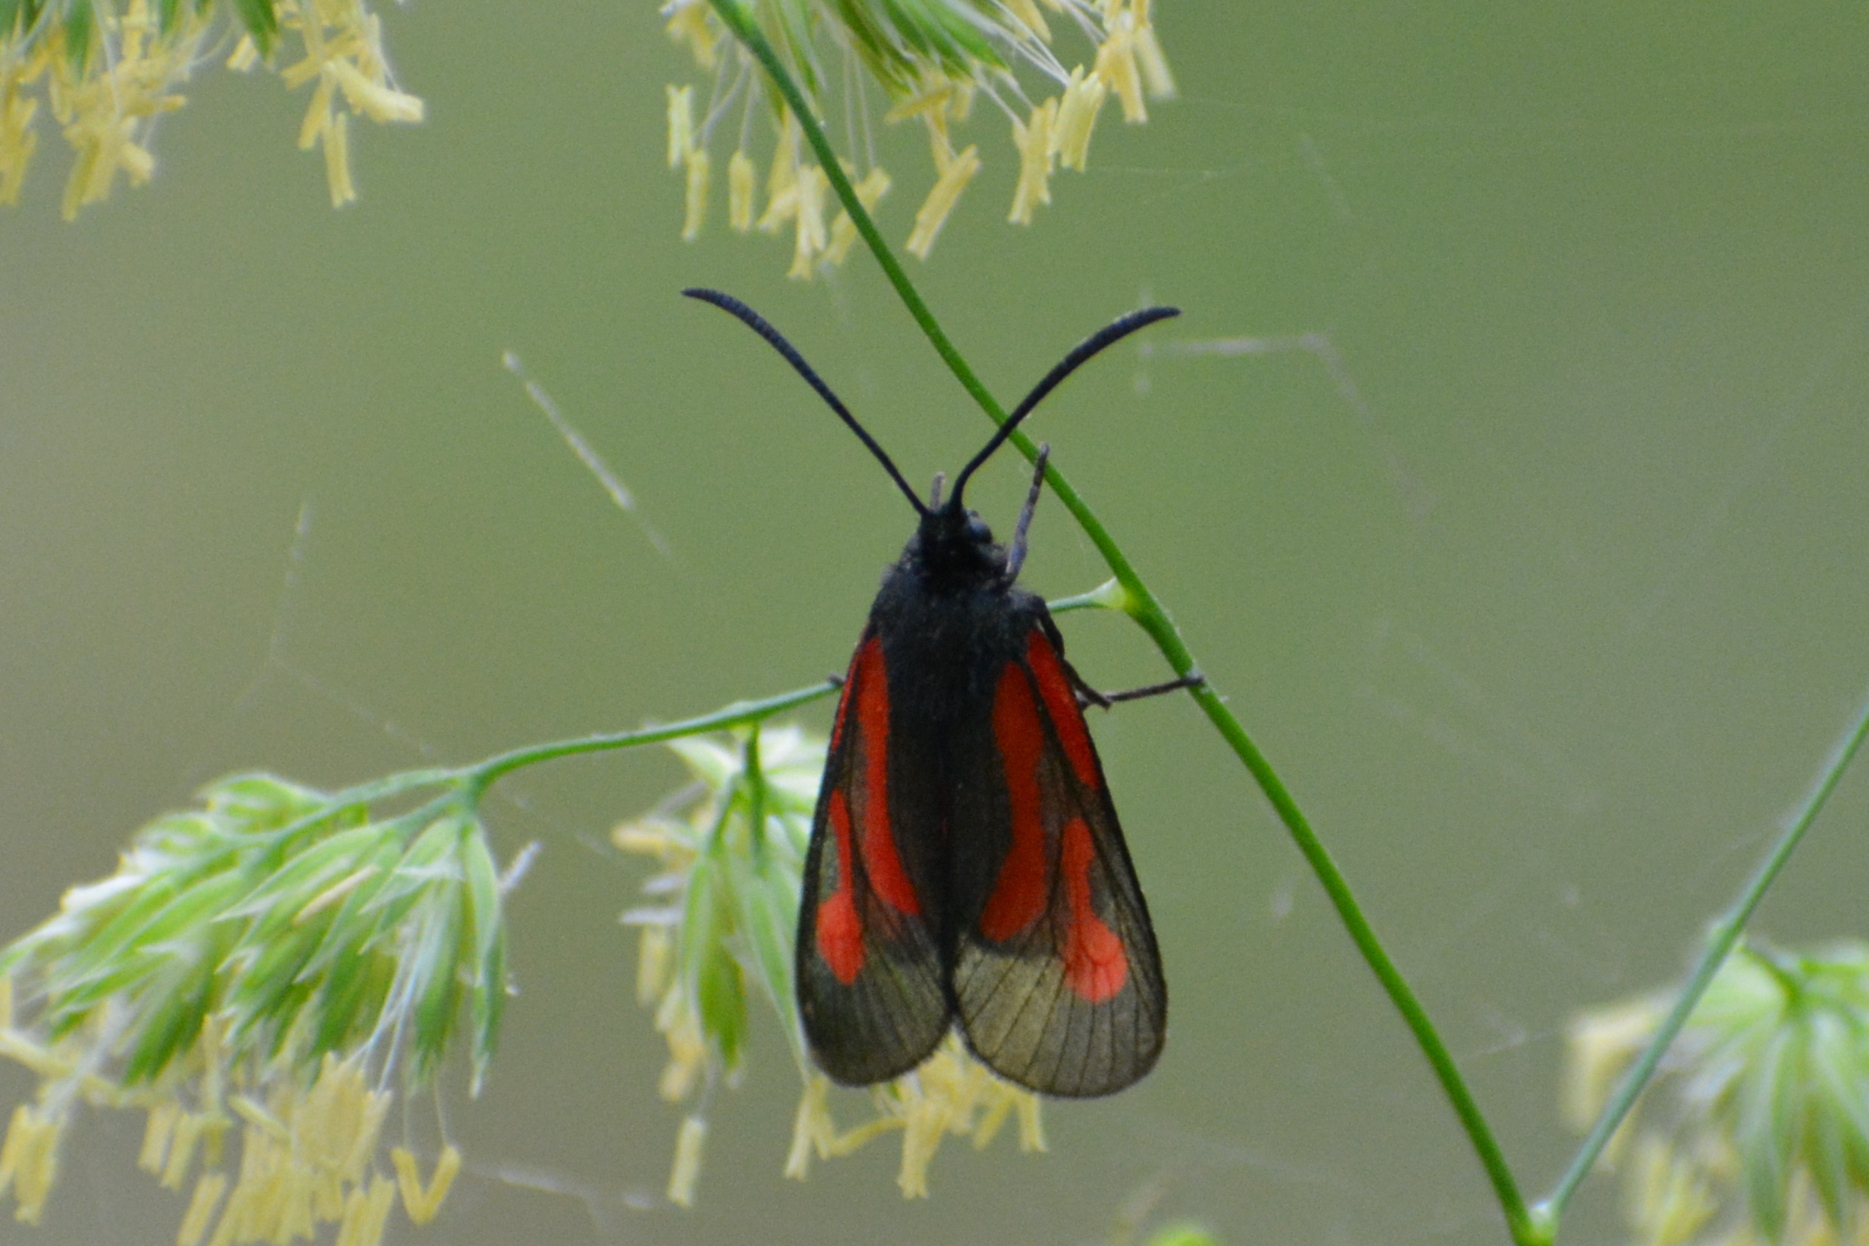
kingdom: Animalia
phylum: Arthropoda
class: Insecta
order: Lepidoptera
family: Zygaenidae
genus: Zygaena
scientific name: Zygaena osterodensis
